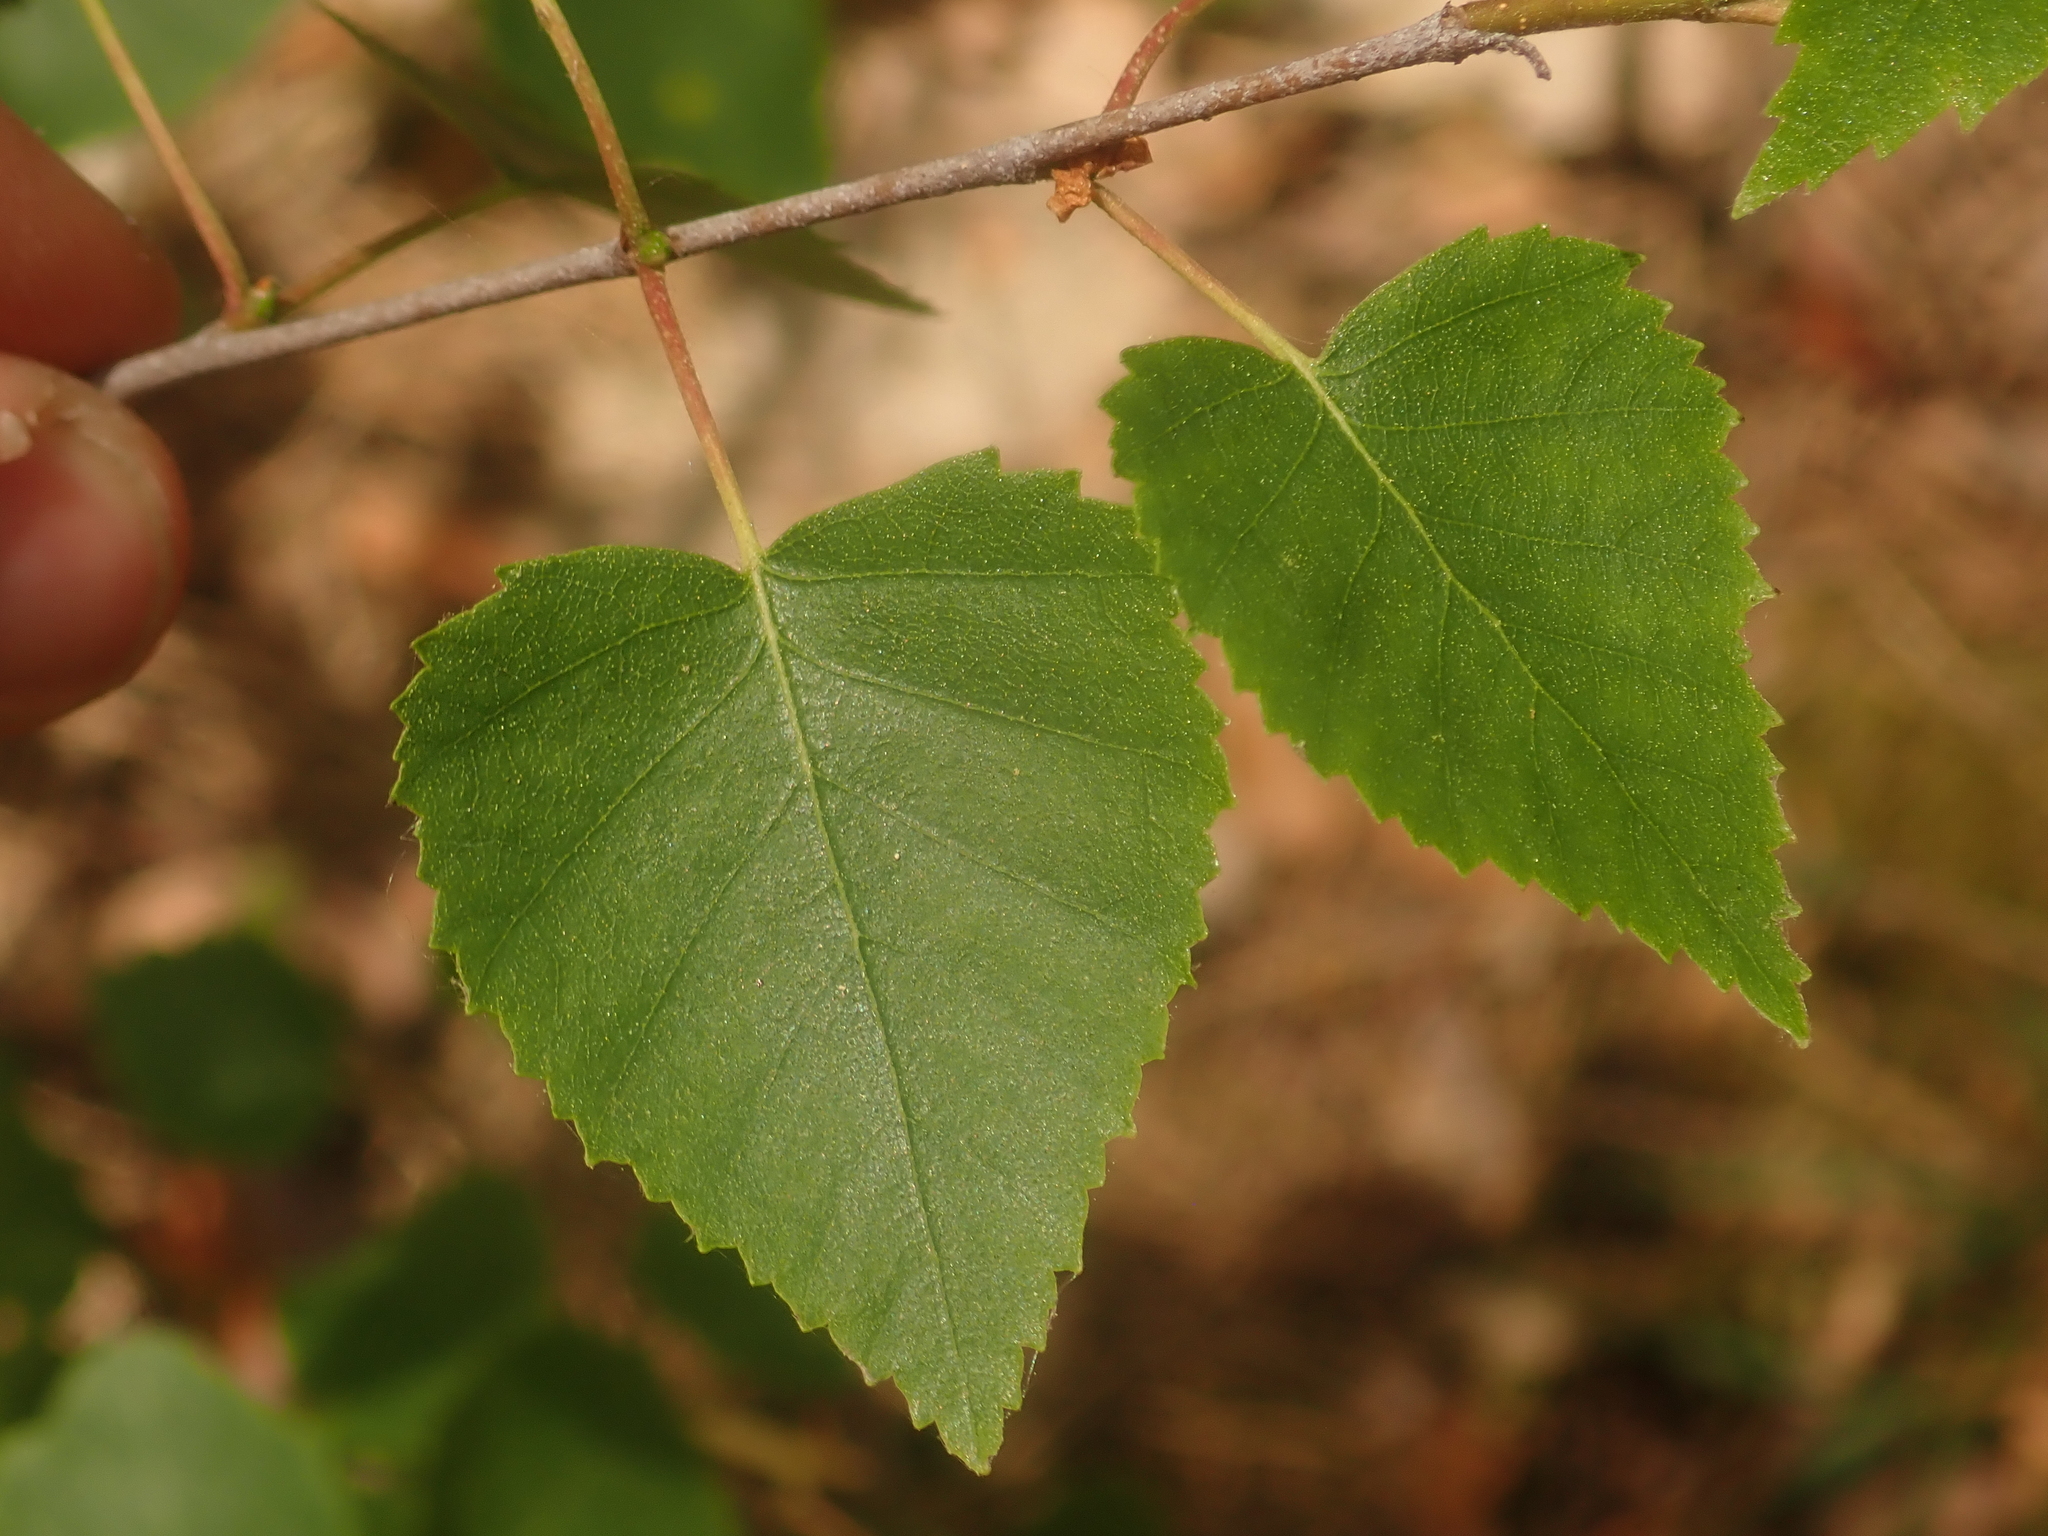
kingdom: Plantae
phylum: Tracheophyta
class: Magnoliopsida
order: Fagales
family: Betulaceae
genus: Betula
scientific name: Betula pendula
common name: Silver birch
